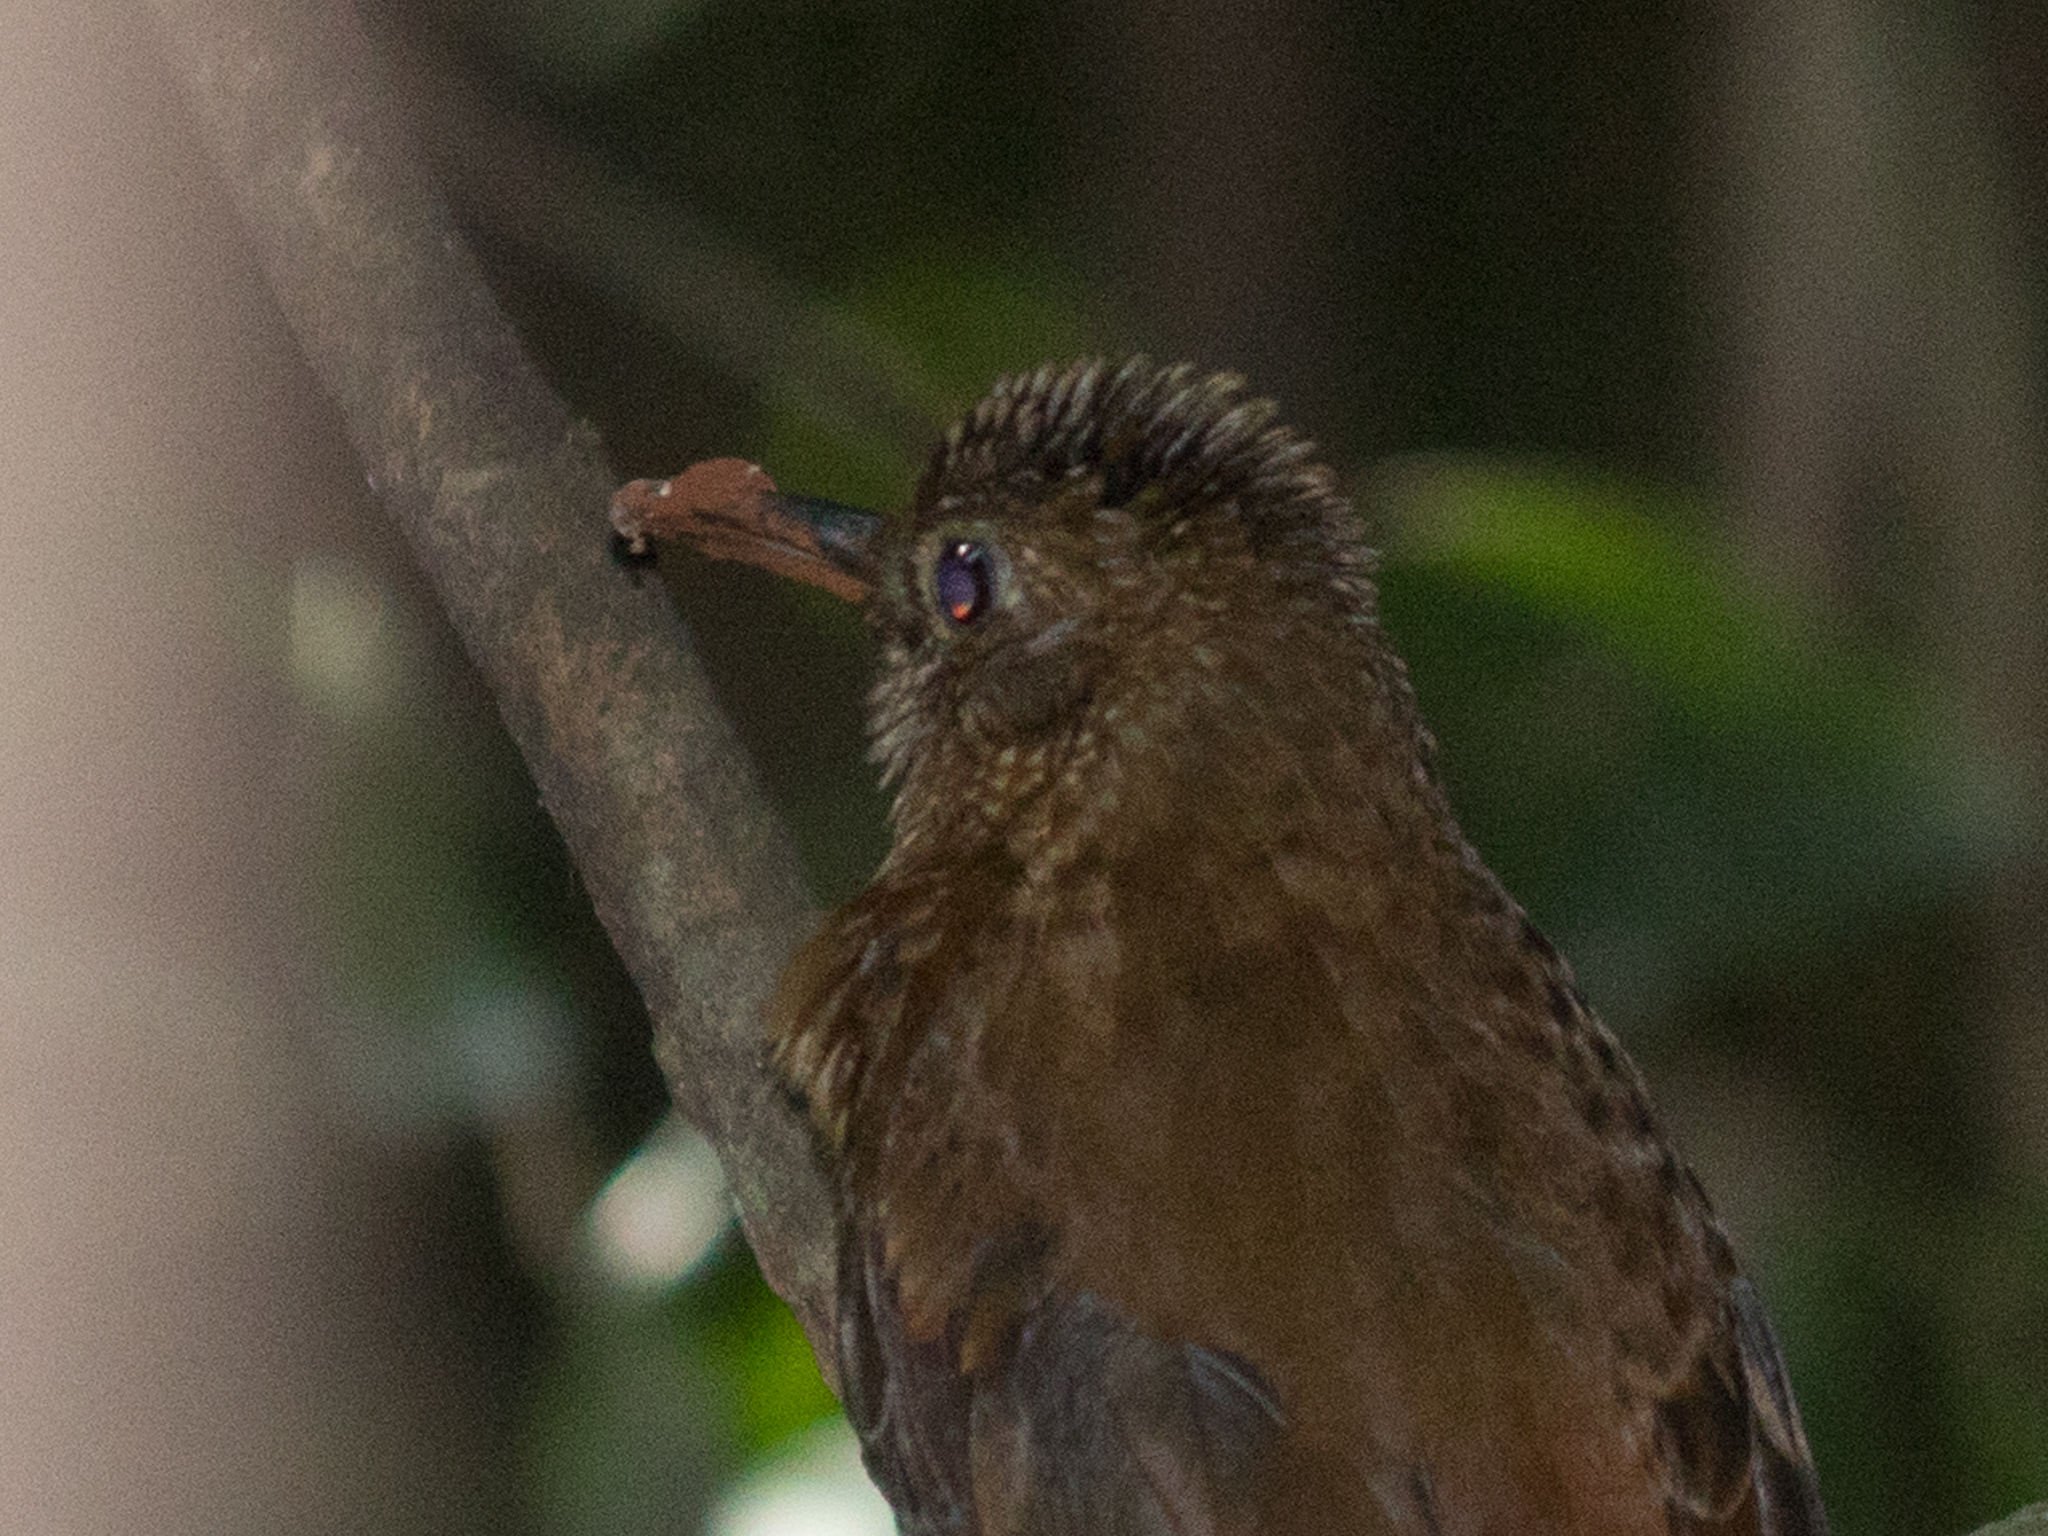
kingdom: Animalia
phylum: Chordata
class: Aves
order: Passeriformes
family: Furnariidae
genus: Sclerurus
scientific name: Sclerurus scansor
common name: Rufous-breasted leaftosser
